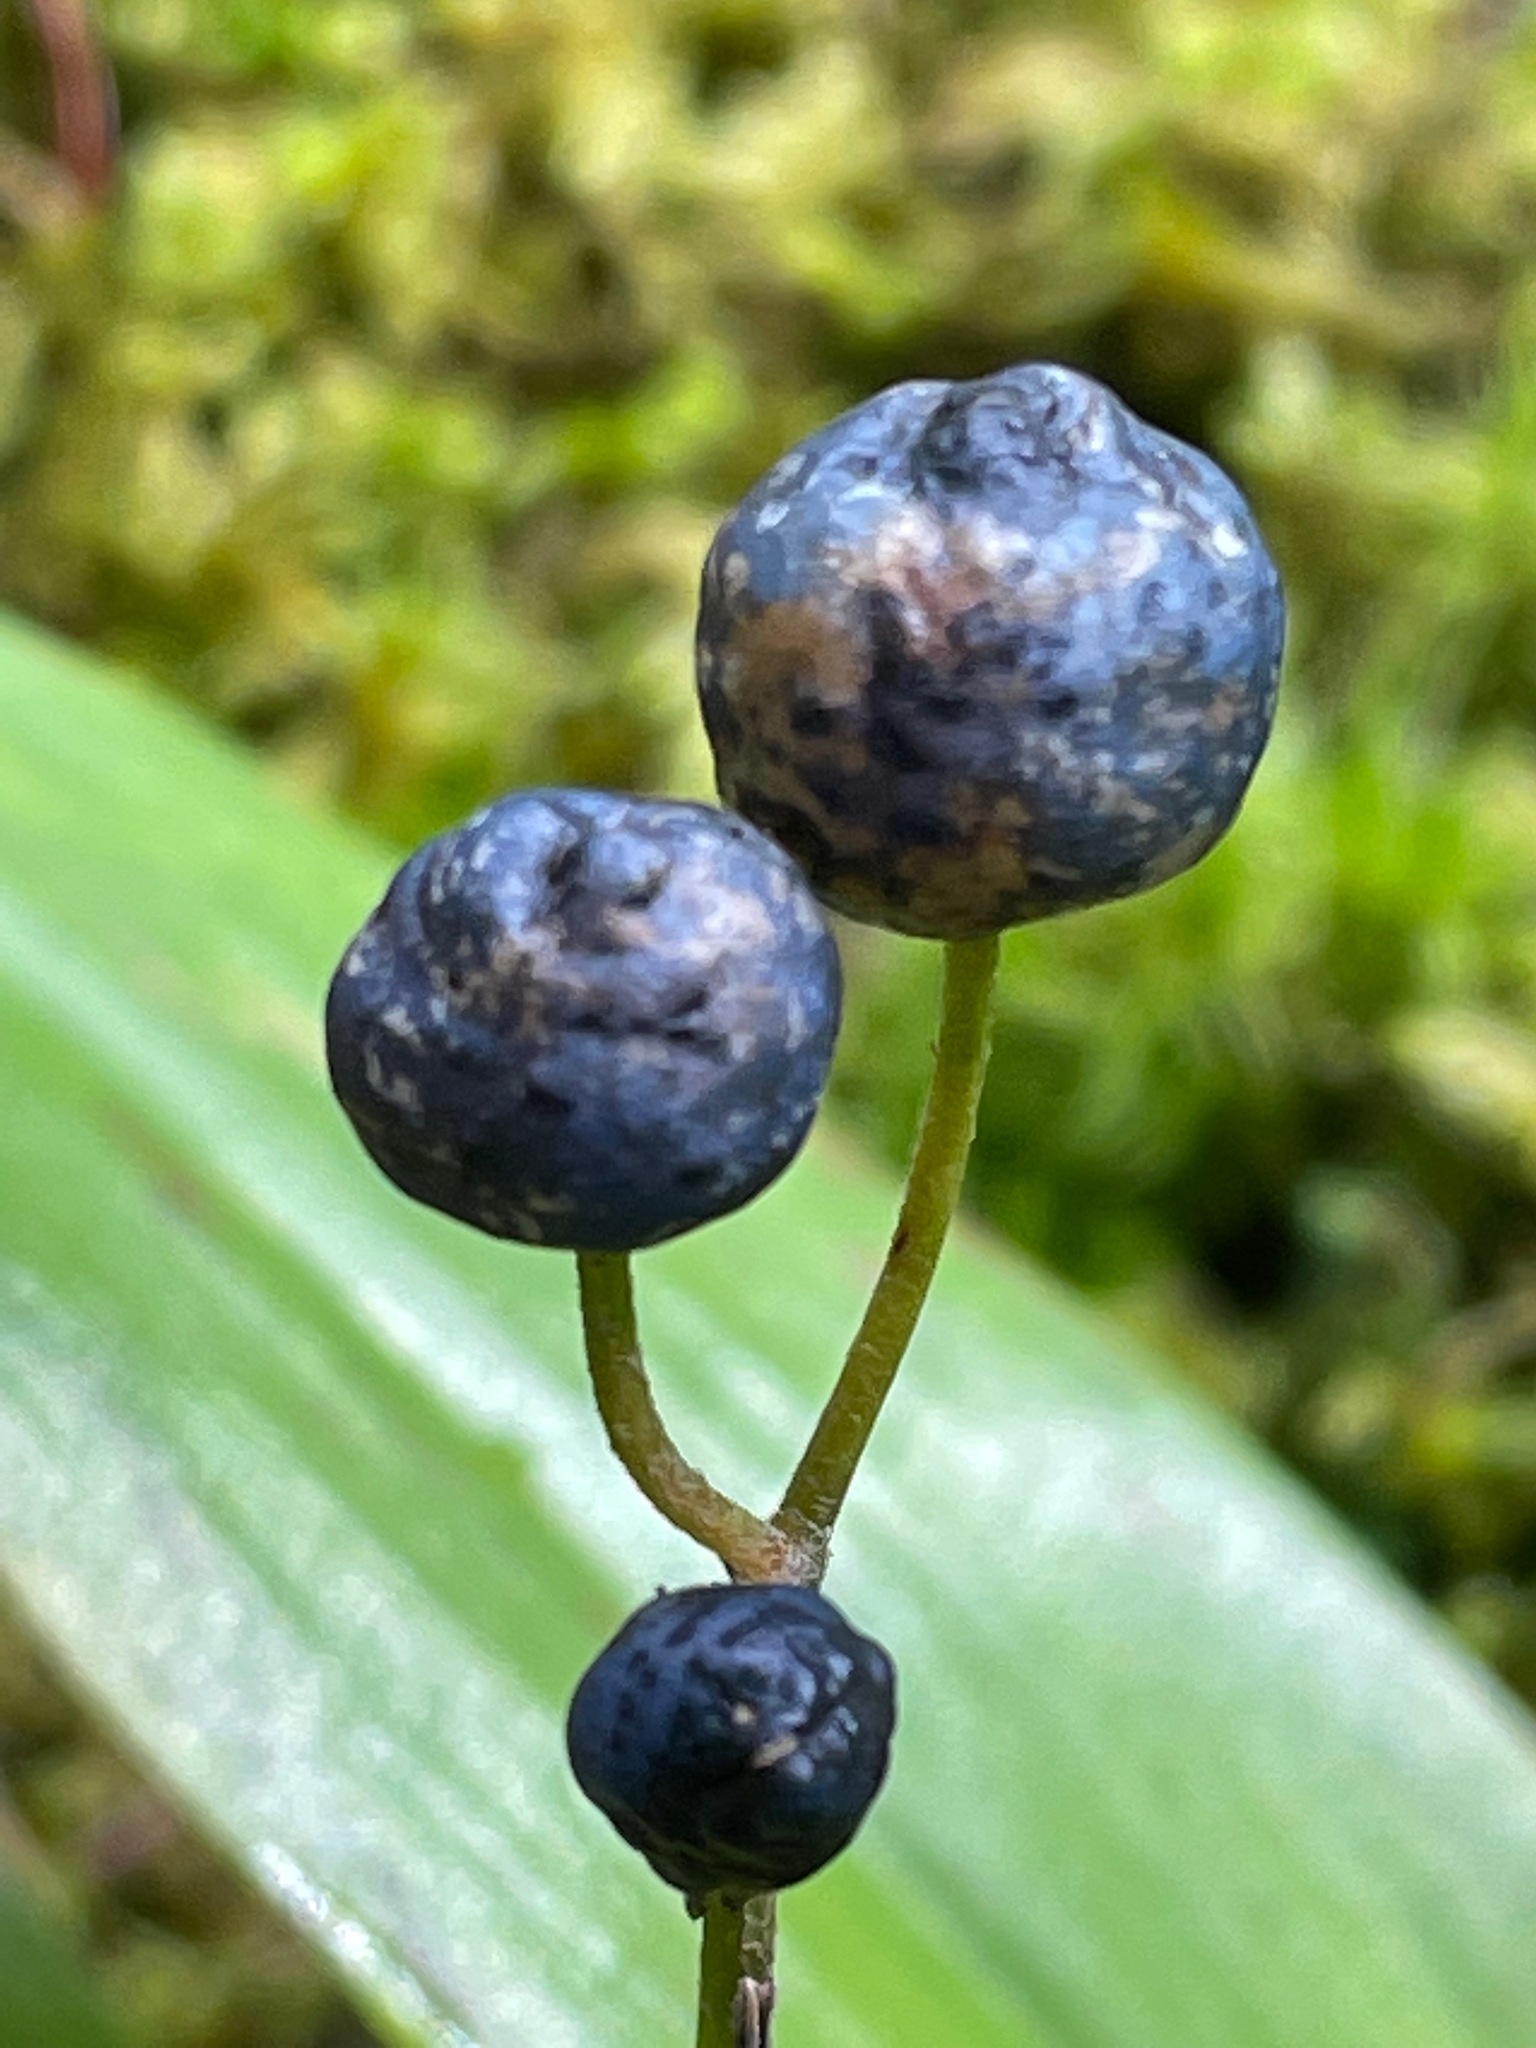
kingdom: Plantae
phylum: Tracheophyta
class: Liliopsida
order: Liliales
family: Liliaceae
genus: Clintonia
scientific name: Clintonia borealis
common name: Yellow clintonia
